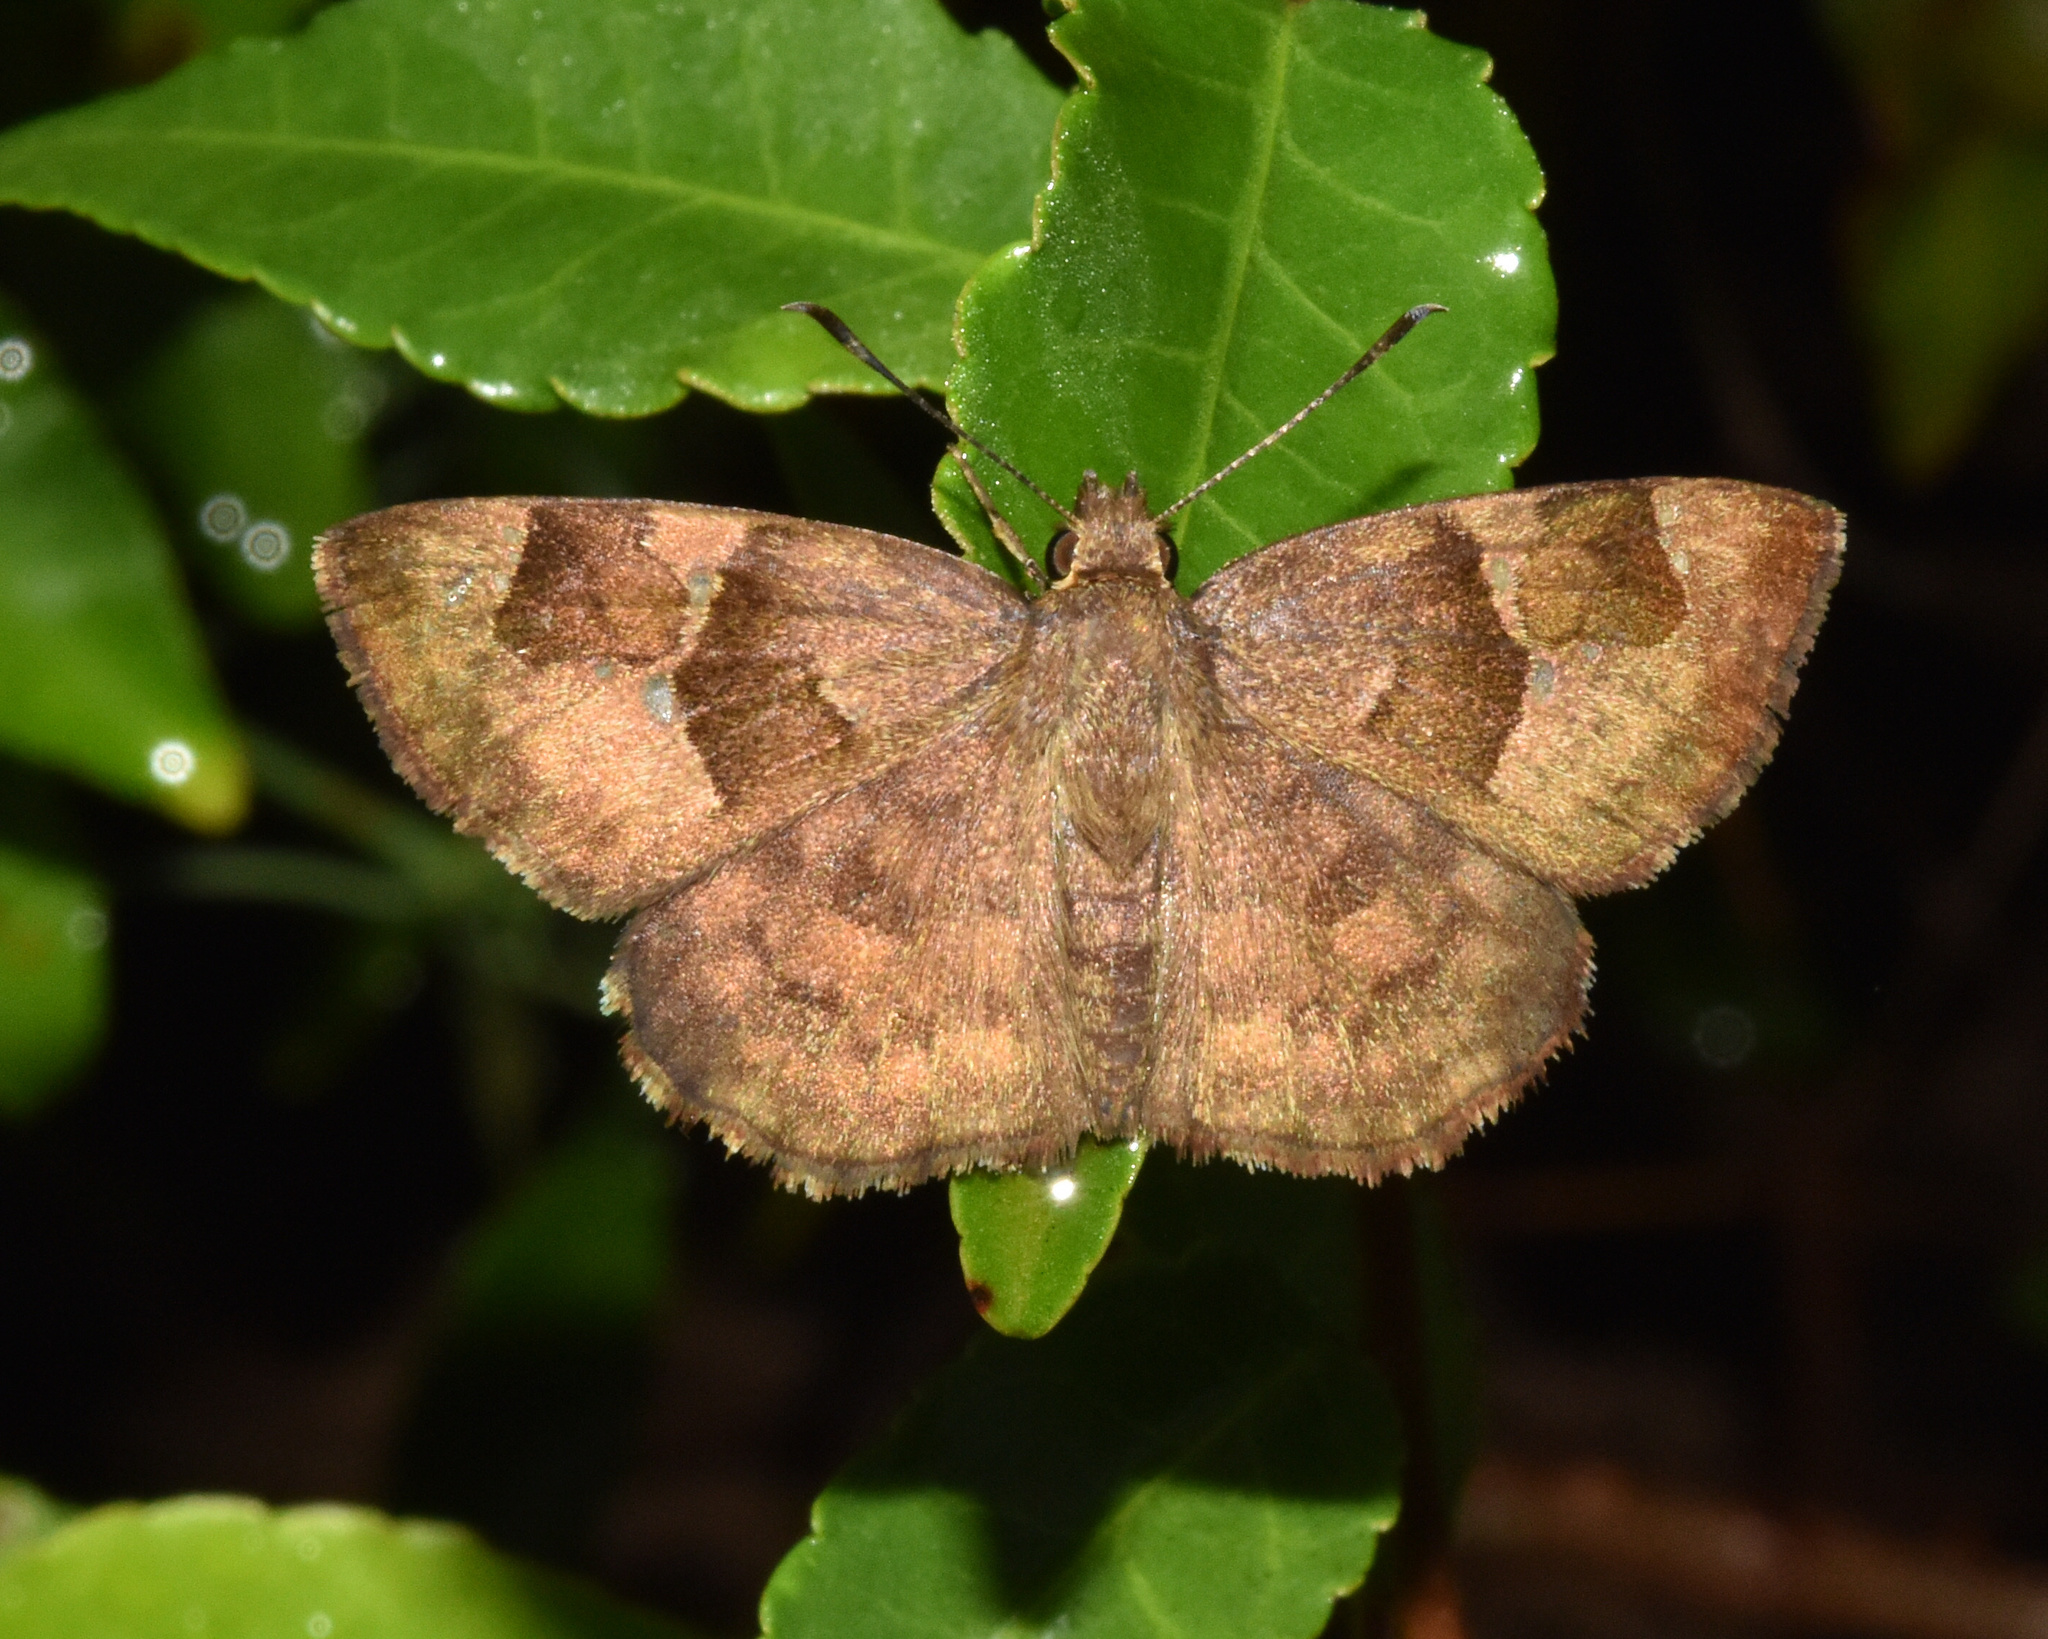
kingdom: Animalia
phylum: Arthropoda
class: Insecta
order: Lepidoptera
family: Hesperiidae
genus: Sarangesa
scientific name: Sarangesa phidyle
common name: Small elfin
